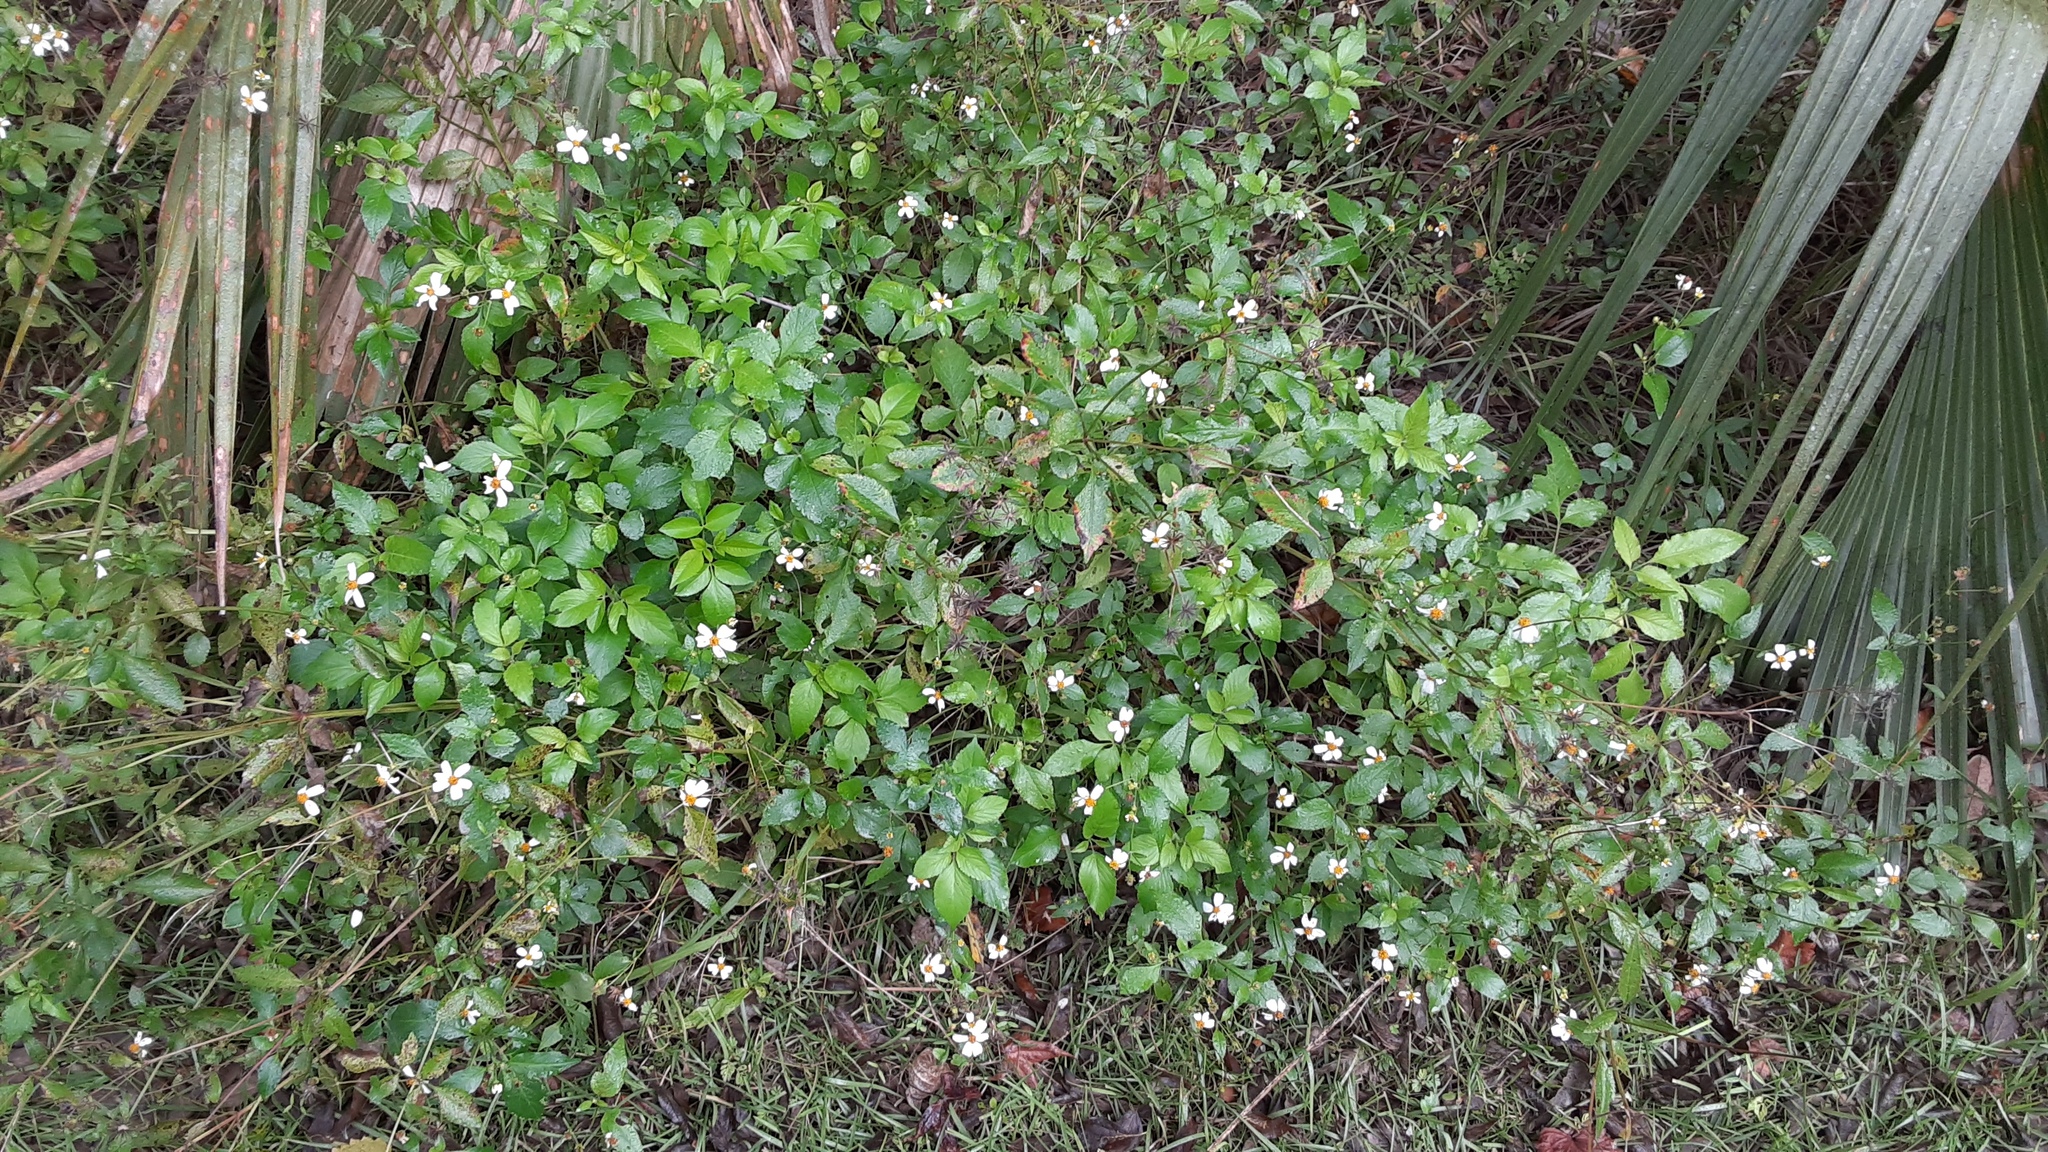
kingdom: Plantae
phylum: Tracheophyta
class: Magnoliopsida
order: Asterales
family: Asteraceae
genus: Bidens
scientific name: Bidens alba
